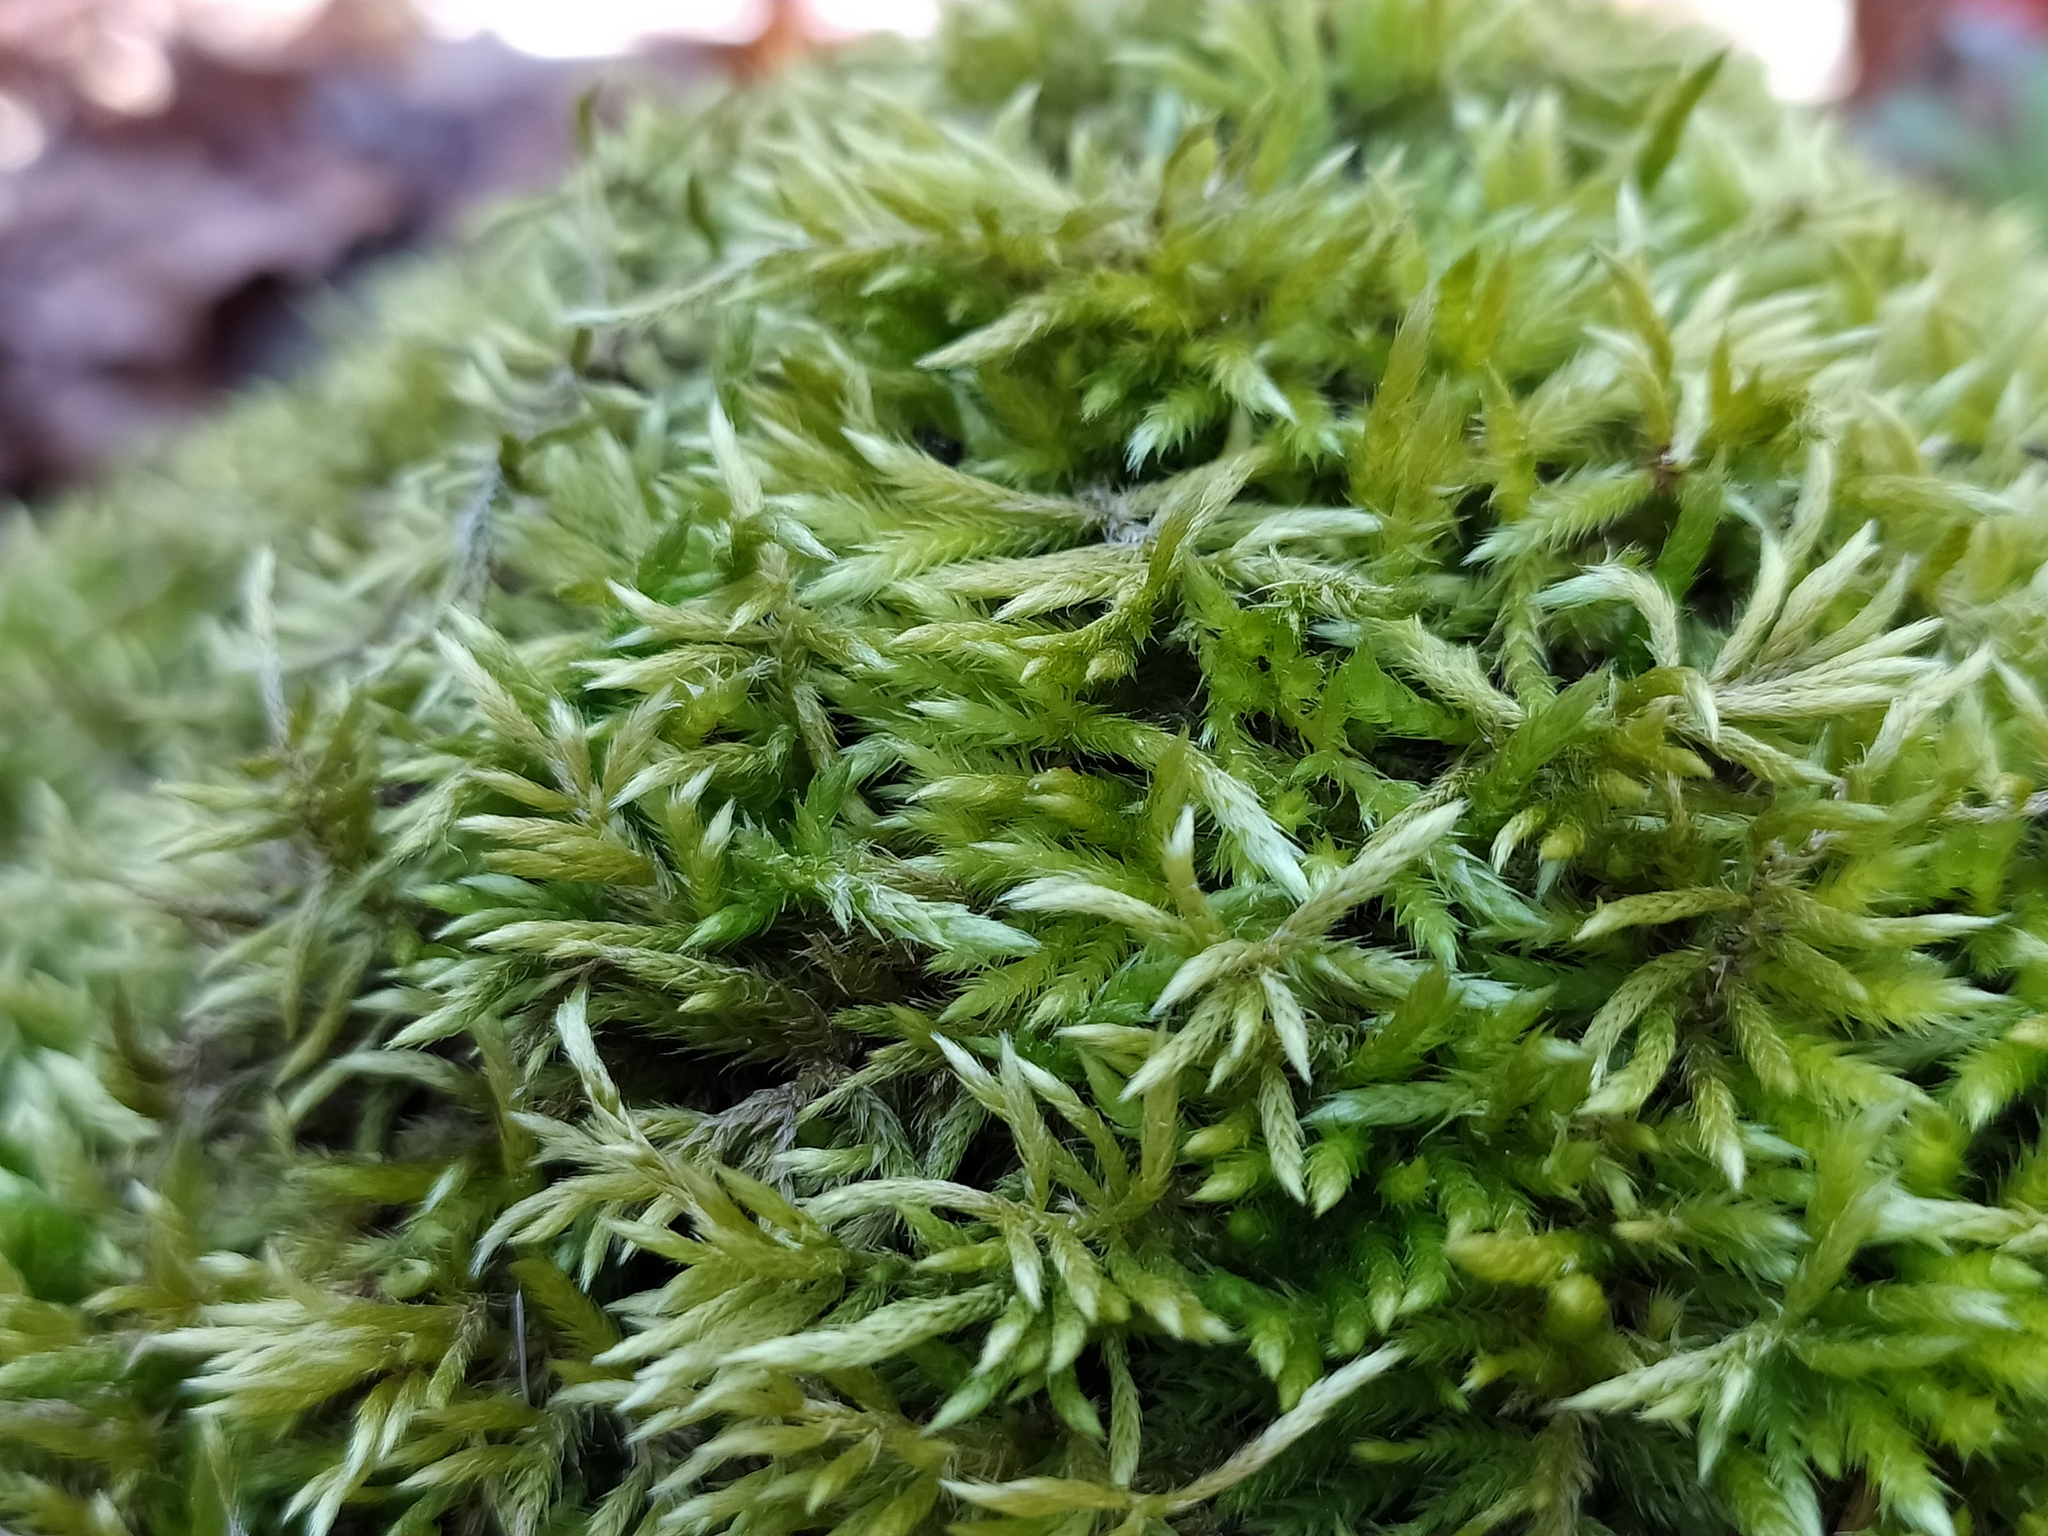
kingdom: Plantae
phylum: Bryophyta
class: Bryopsida
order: Hypnales
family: Brachytheciaceae
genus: Brachythecium
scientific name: Brachythecium geheebii
